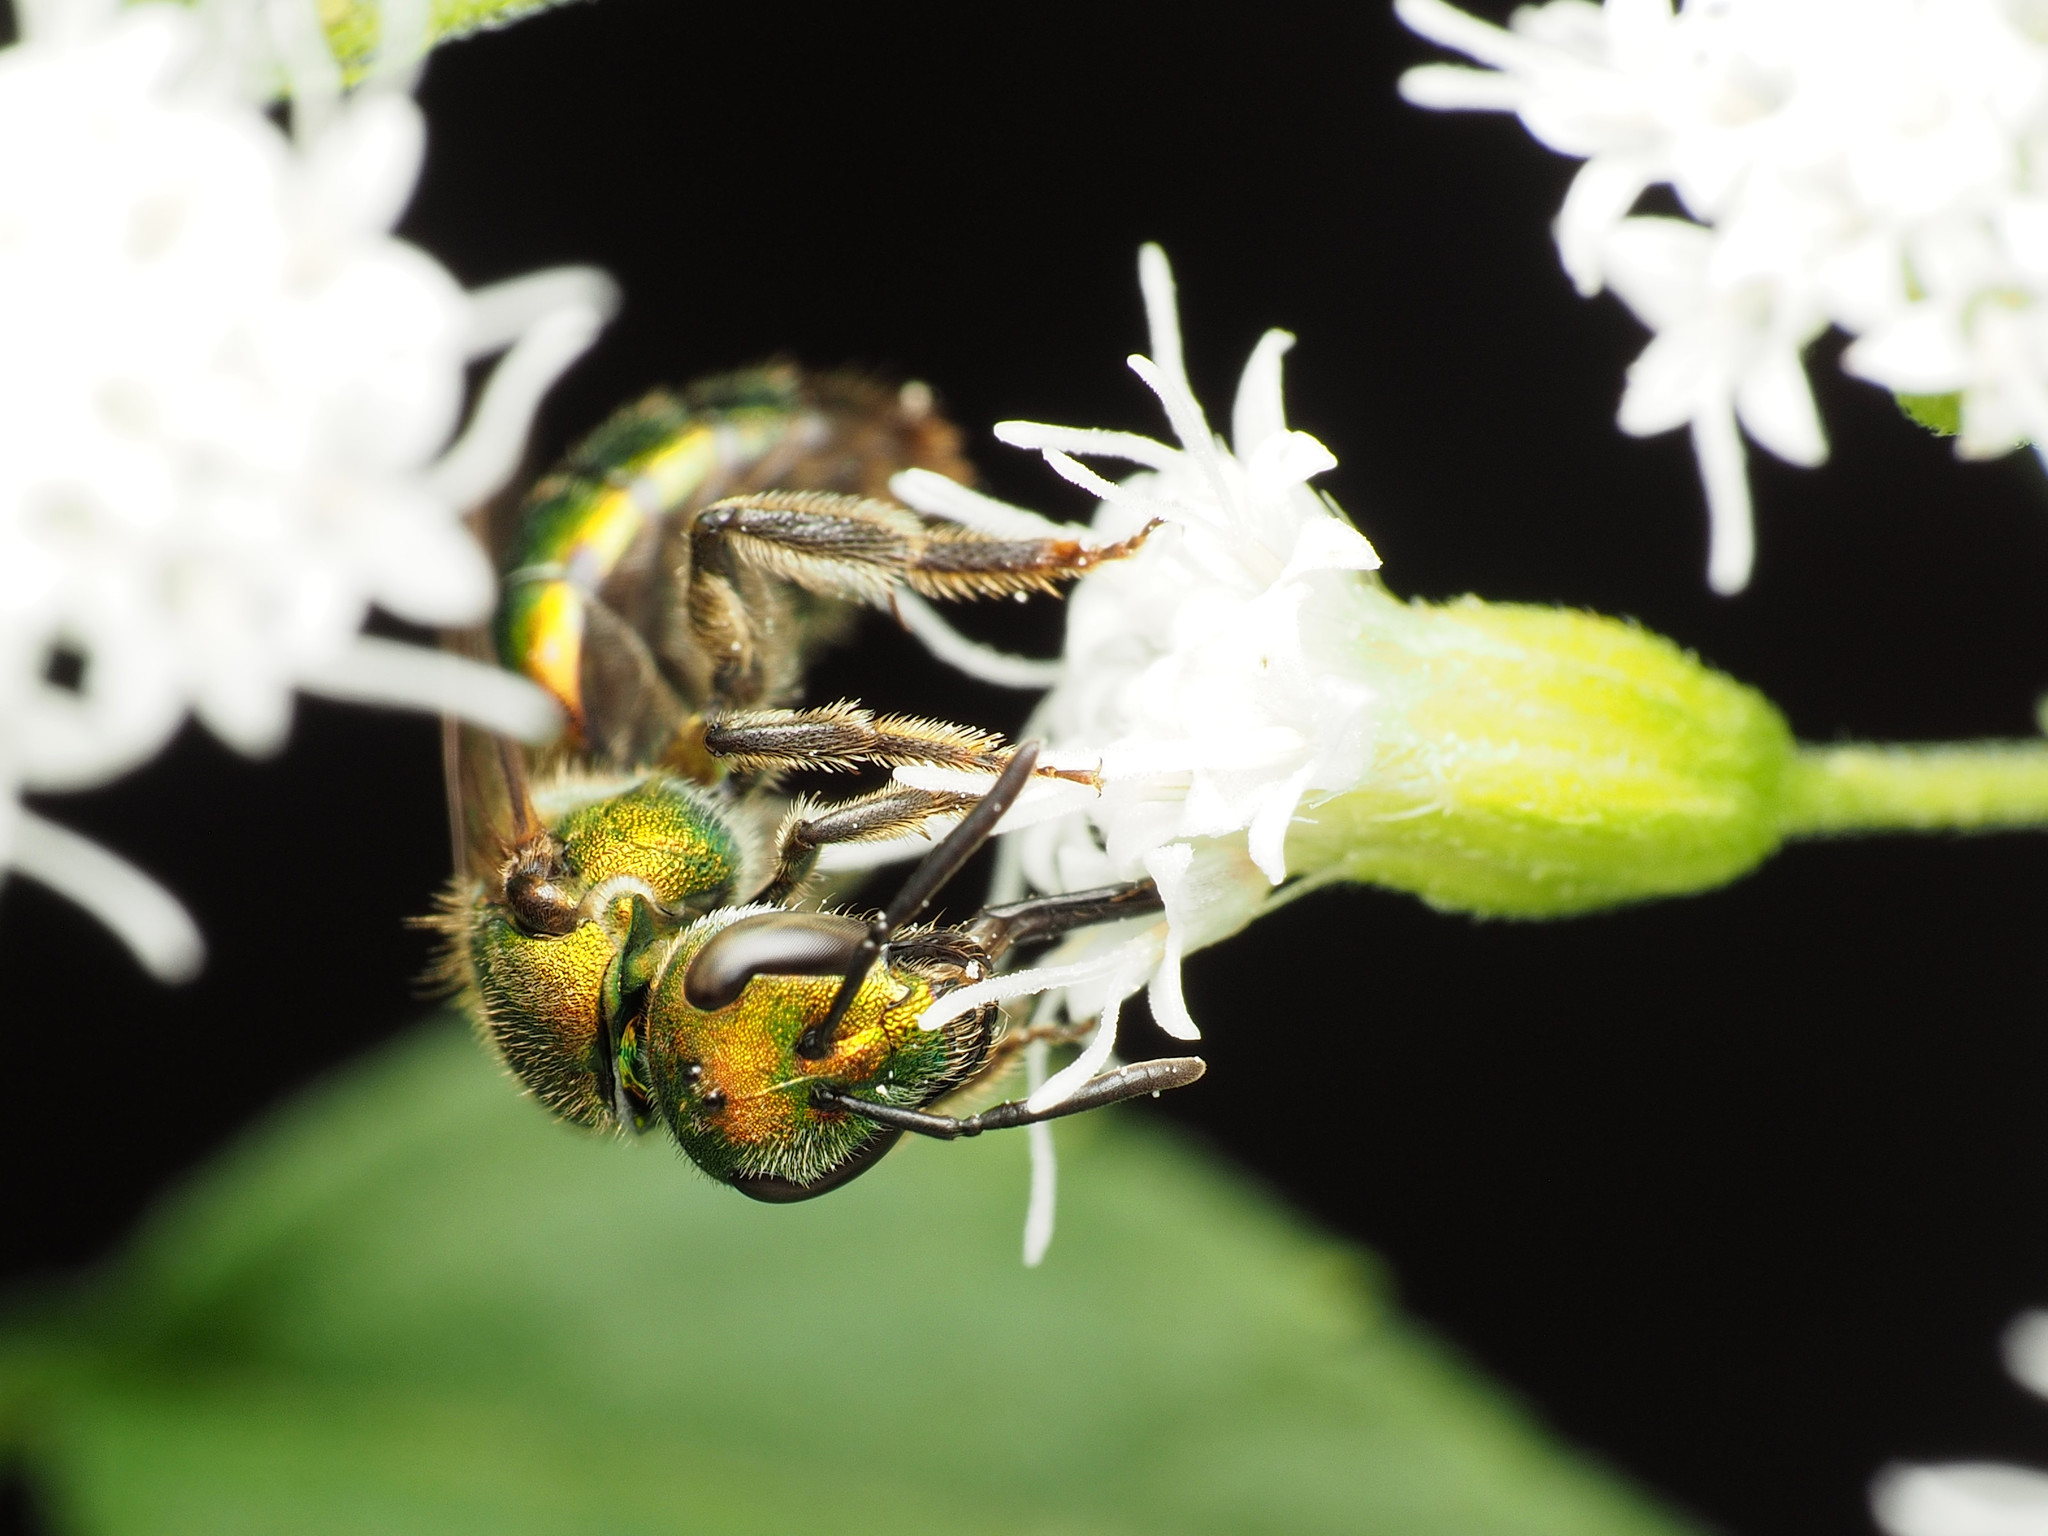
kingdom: Animalia
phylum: Arthropoda
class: Insecta
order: Hymenoptera
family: Halictidae
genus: Augochlora
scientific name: Augochlora pura
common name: Pure green sweat bee
